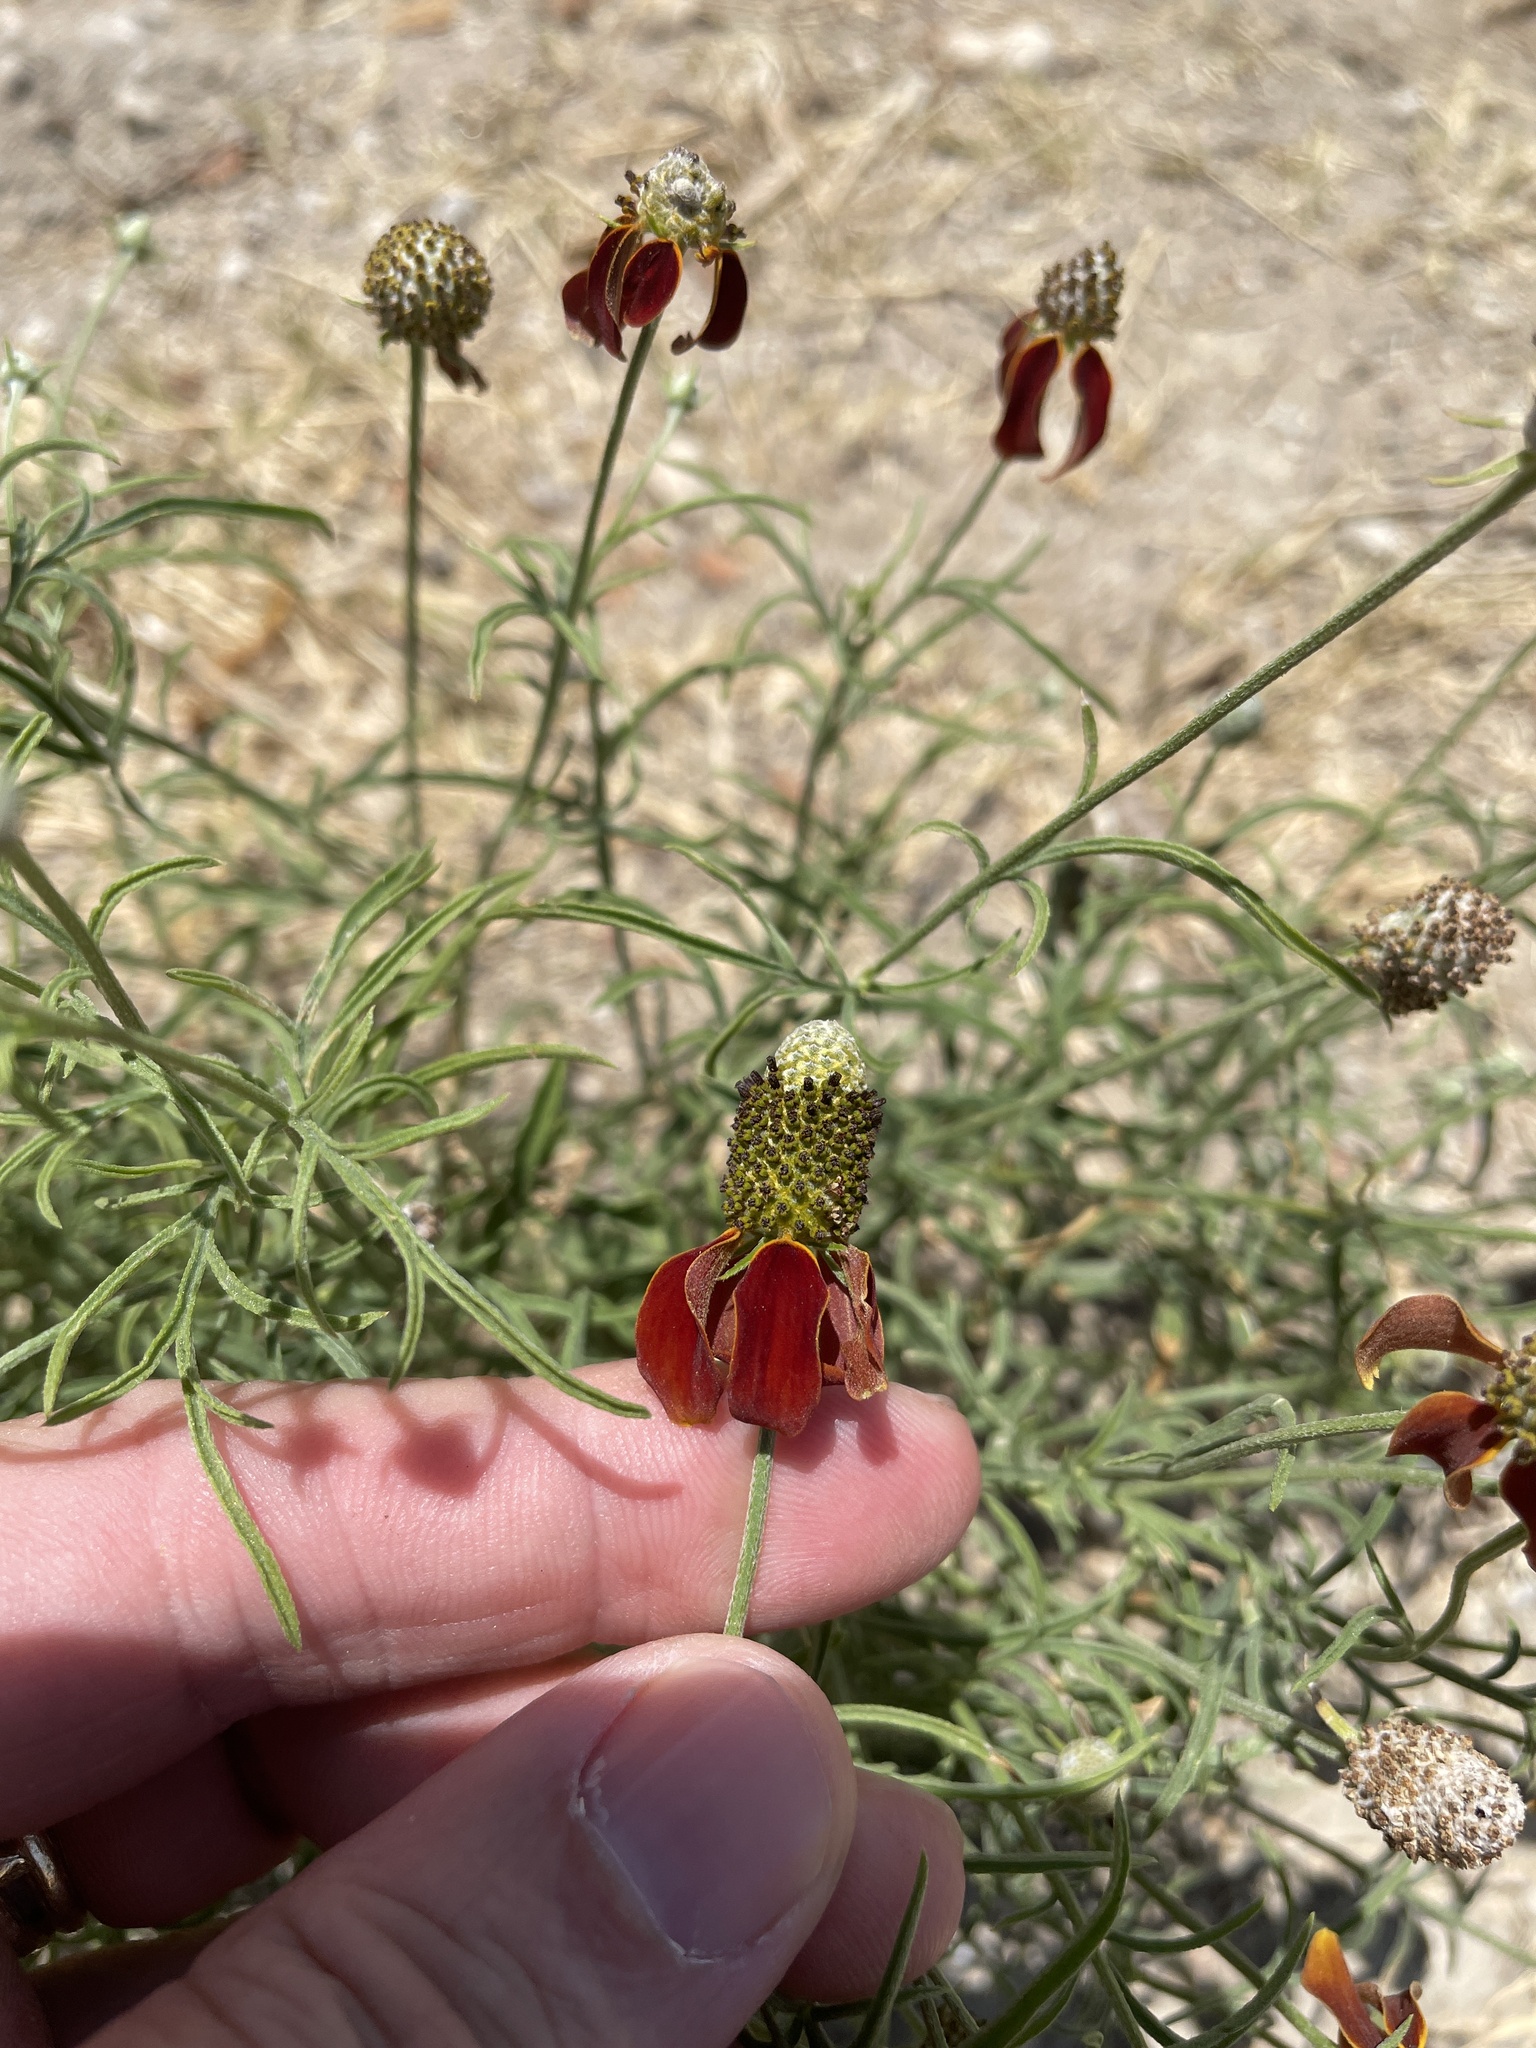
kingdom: Plantae
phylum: Tracheophyta
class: Magnoliopsida
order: Asterales
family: Asteraceae
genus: Ratibida
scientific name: Ratibida columnifera
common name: Prairie coneflower
